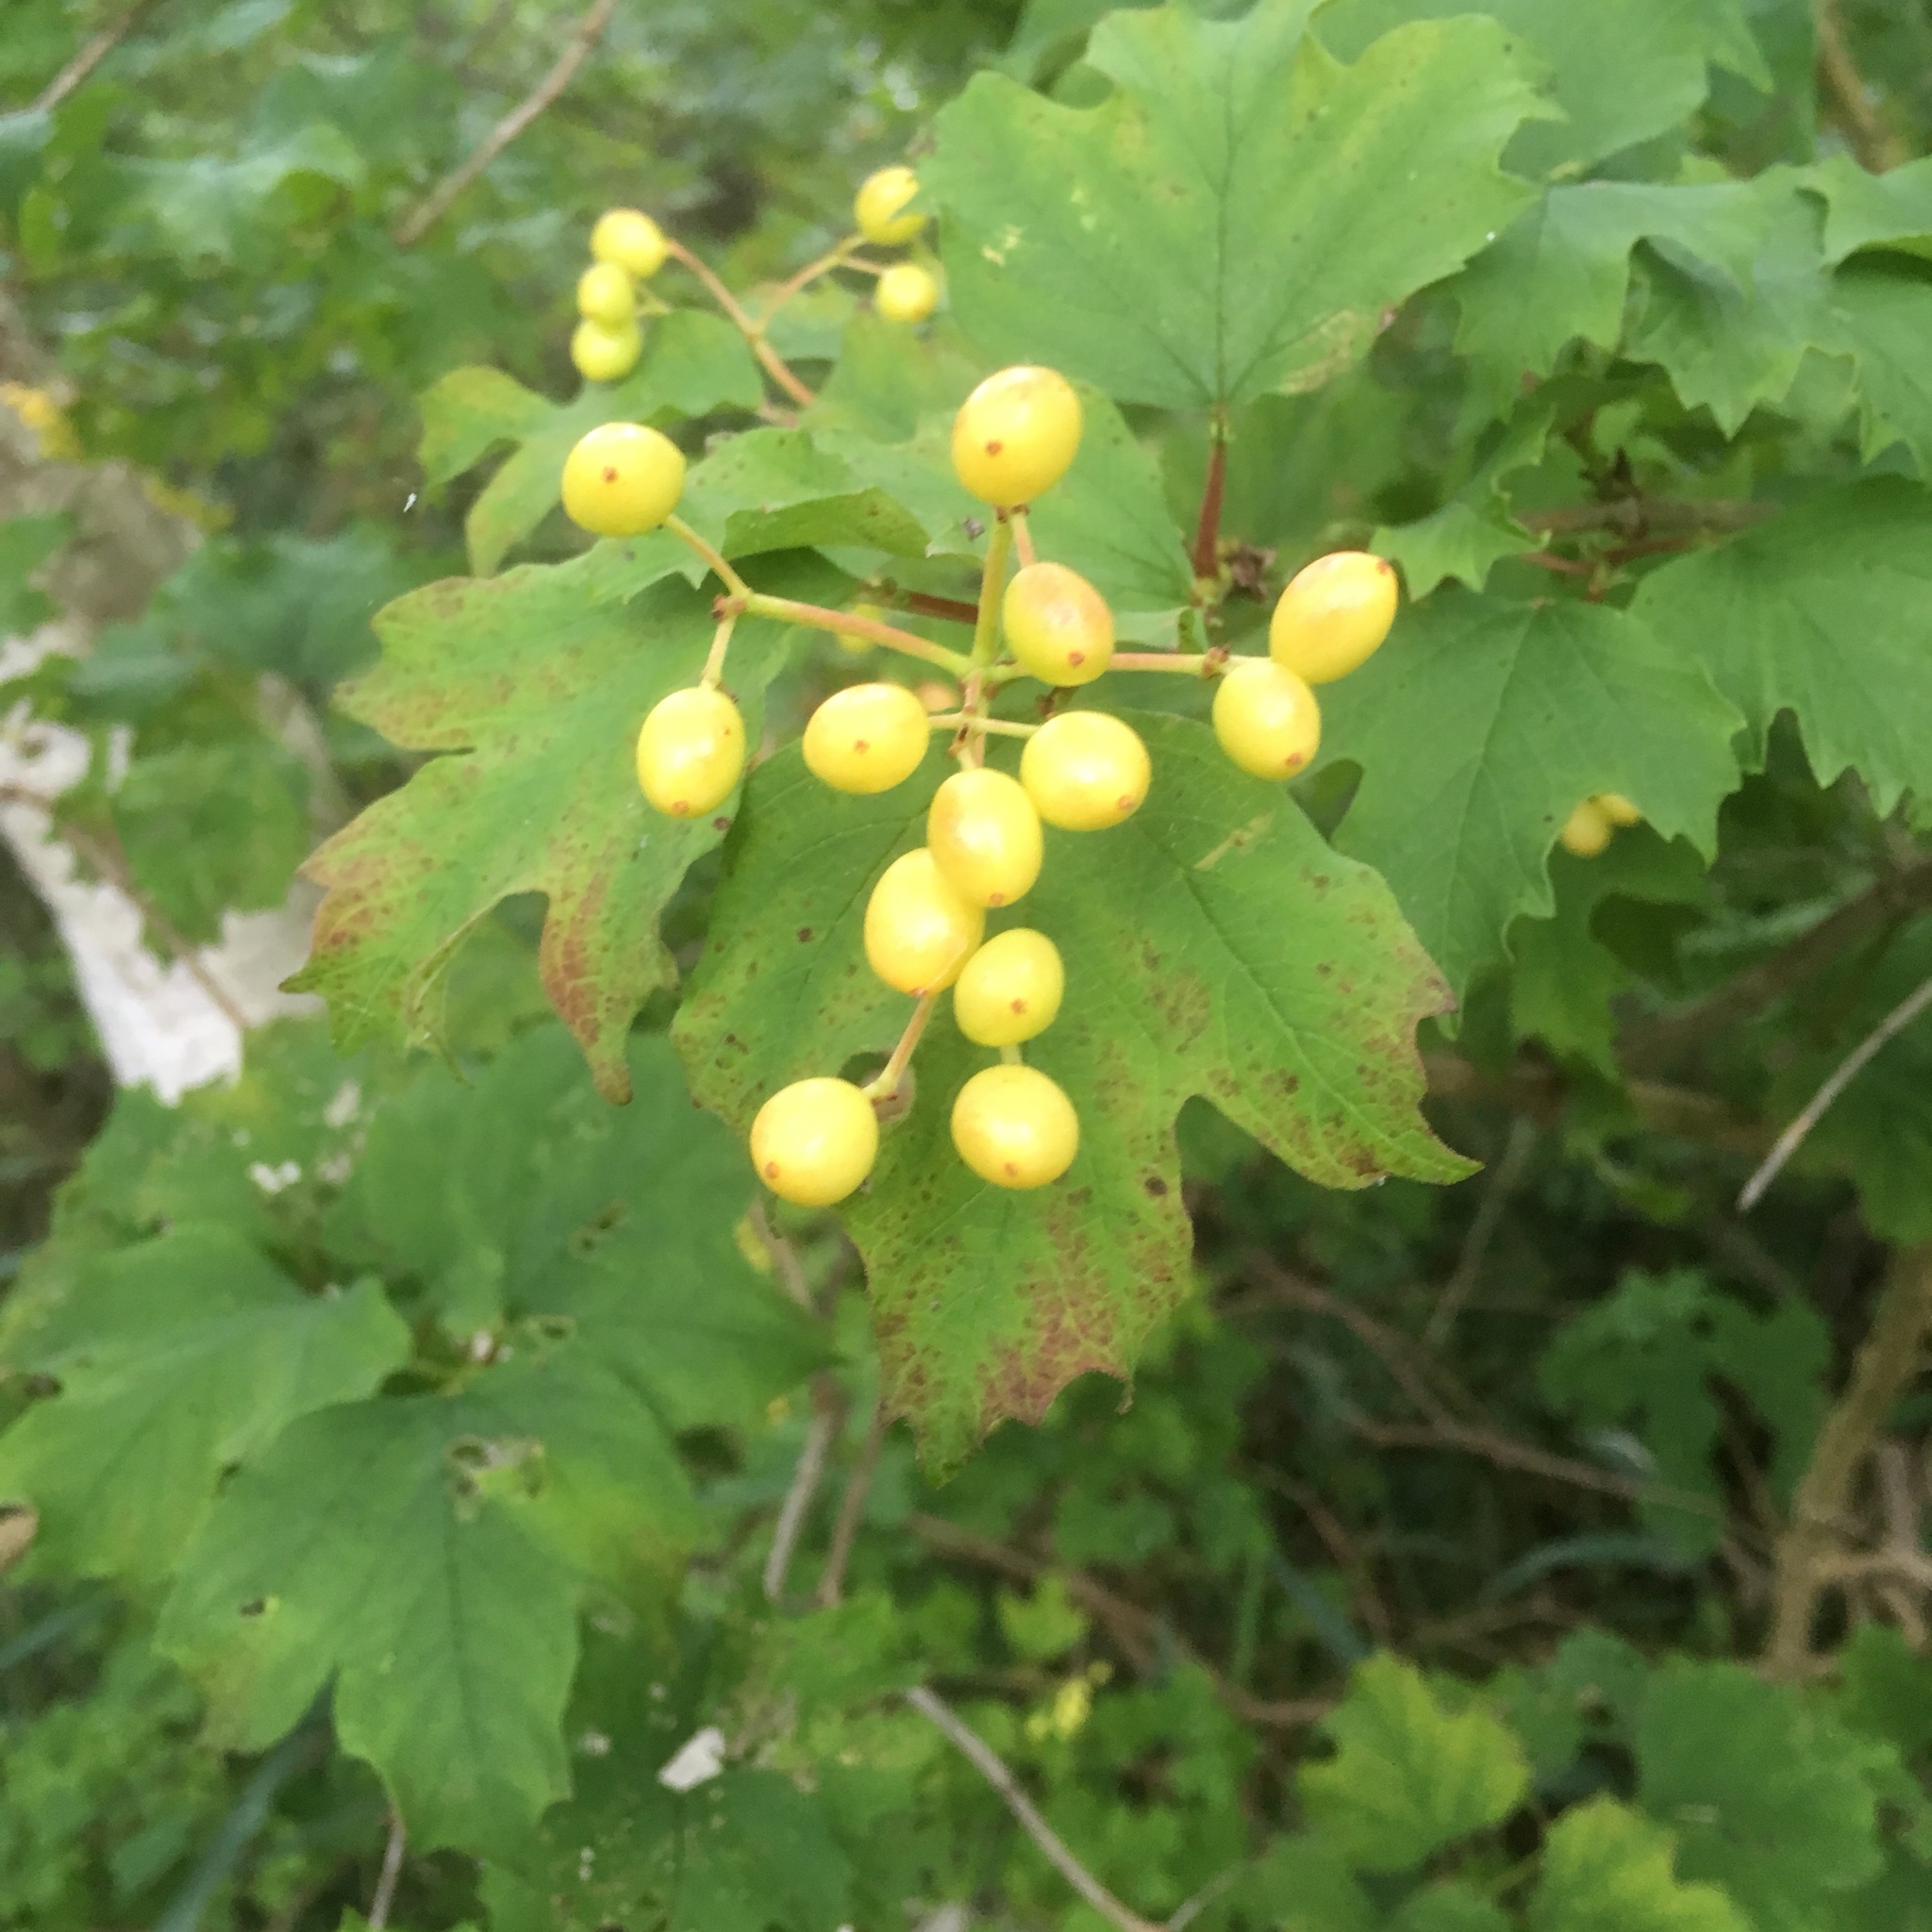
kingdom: Plantae
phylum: Tracheophyta
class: Magnoliopsida
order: Dipsacales
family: Viburnaceae
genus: Viburnum
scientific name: Viburnum opulus
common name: Guelder-rose
